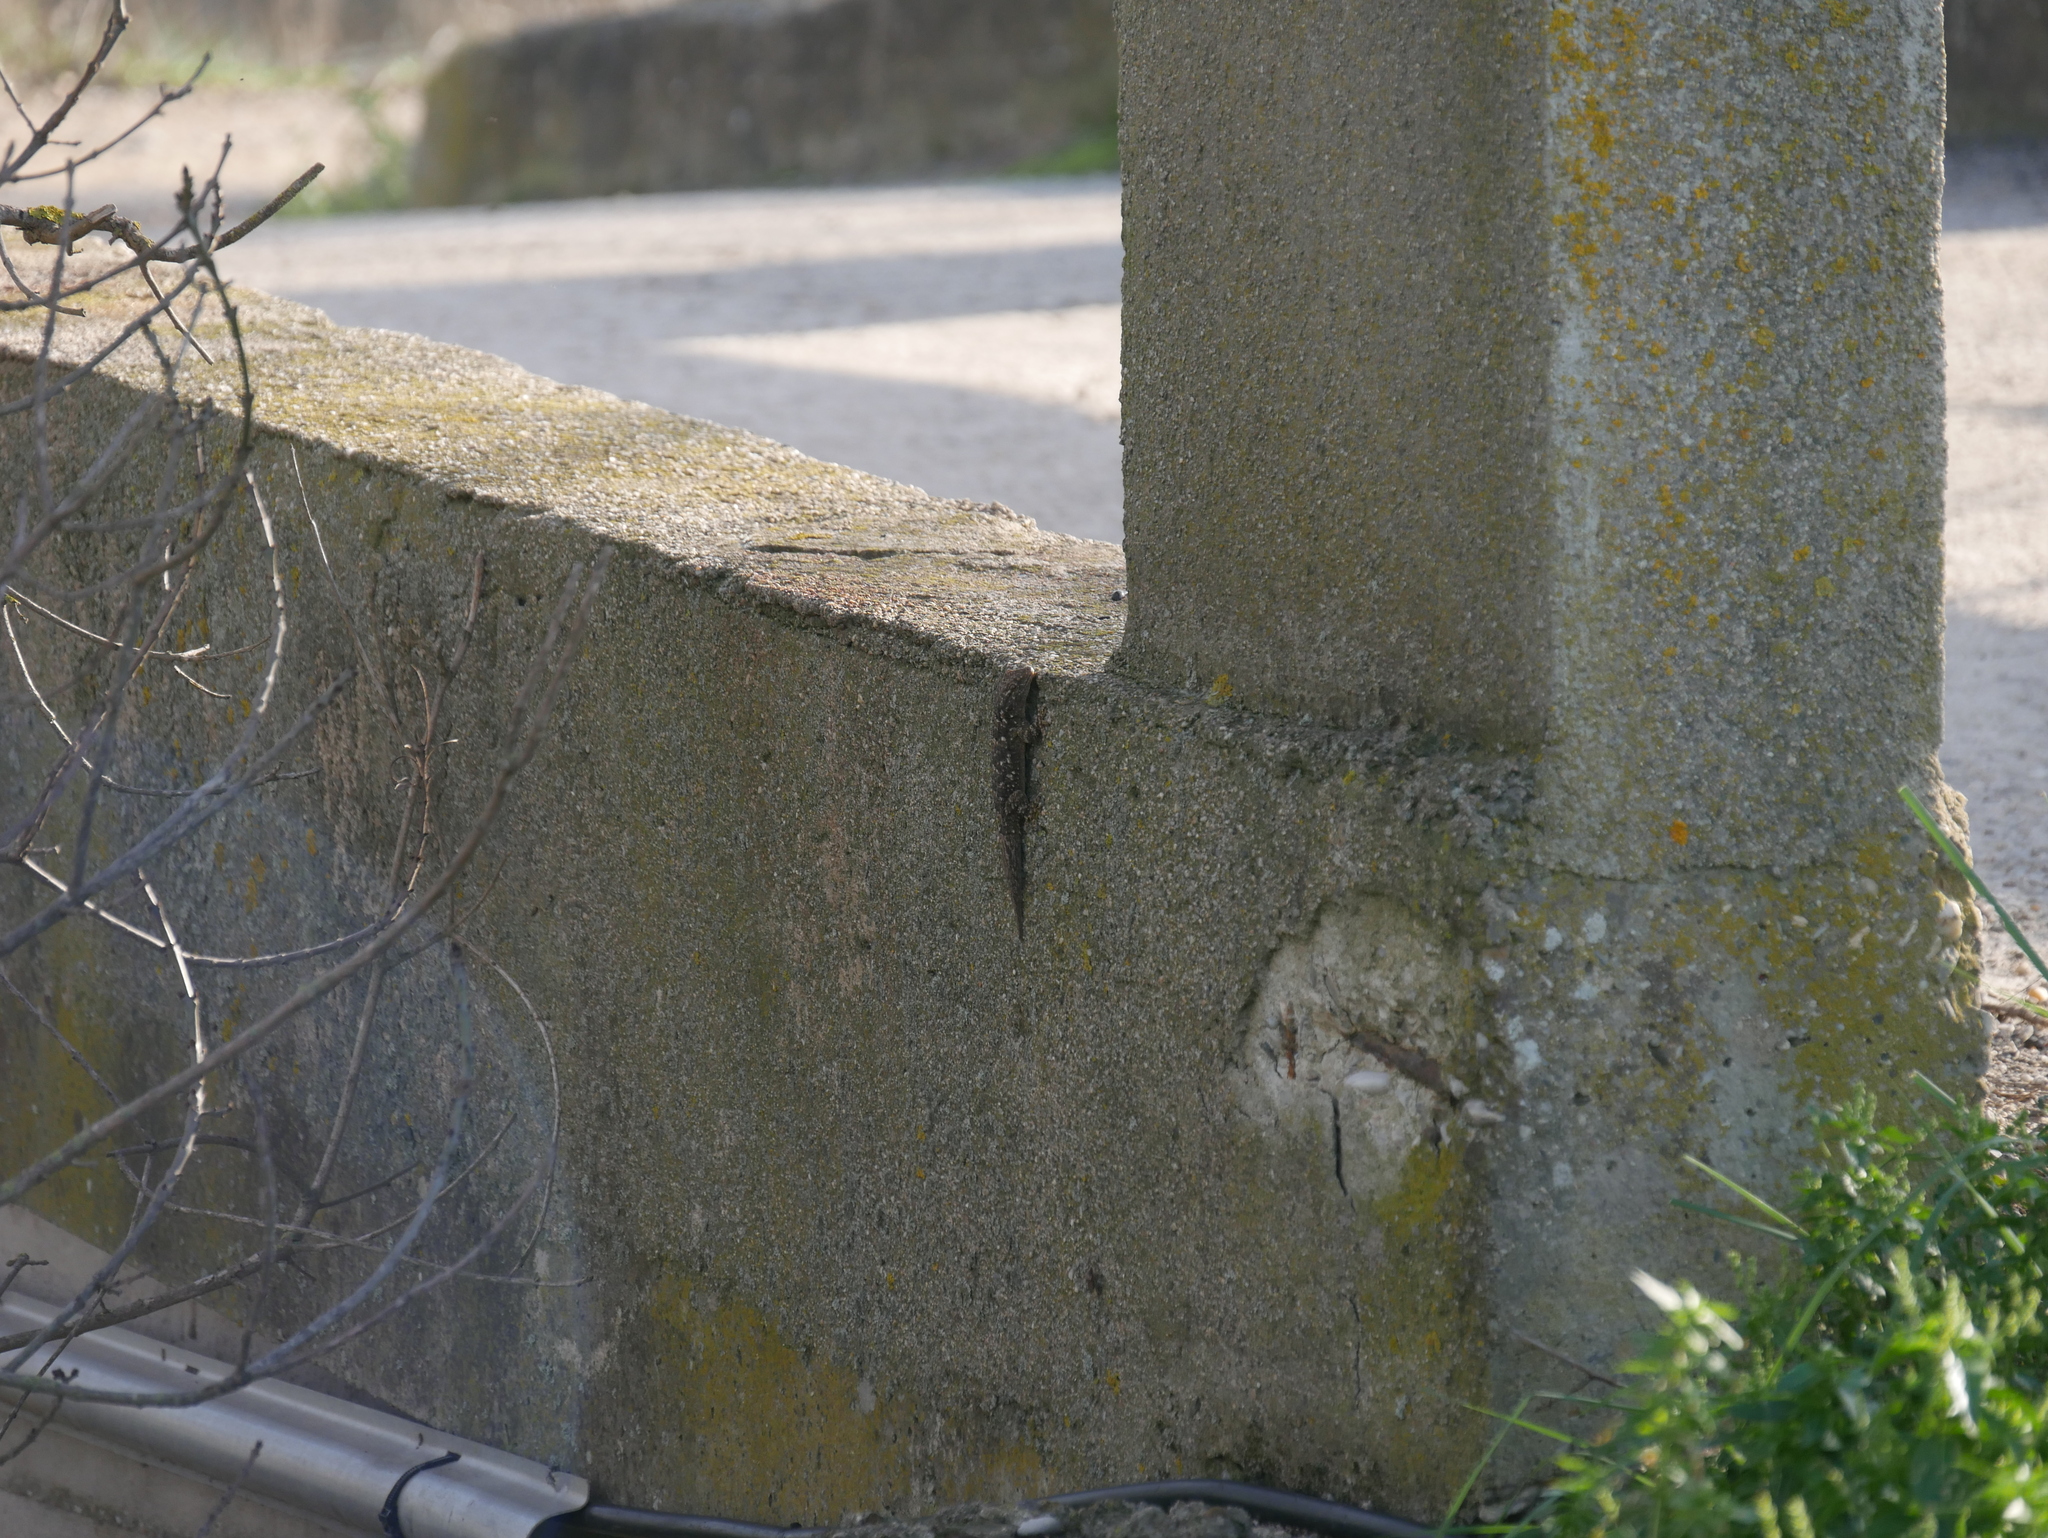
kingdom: Animalia
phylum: Chordata
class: Squamata
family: Phyllodactylidae
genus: Tarentola
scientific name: Tarentola mauritanica
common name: Moorish gecko
